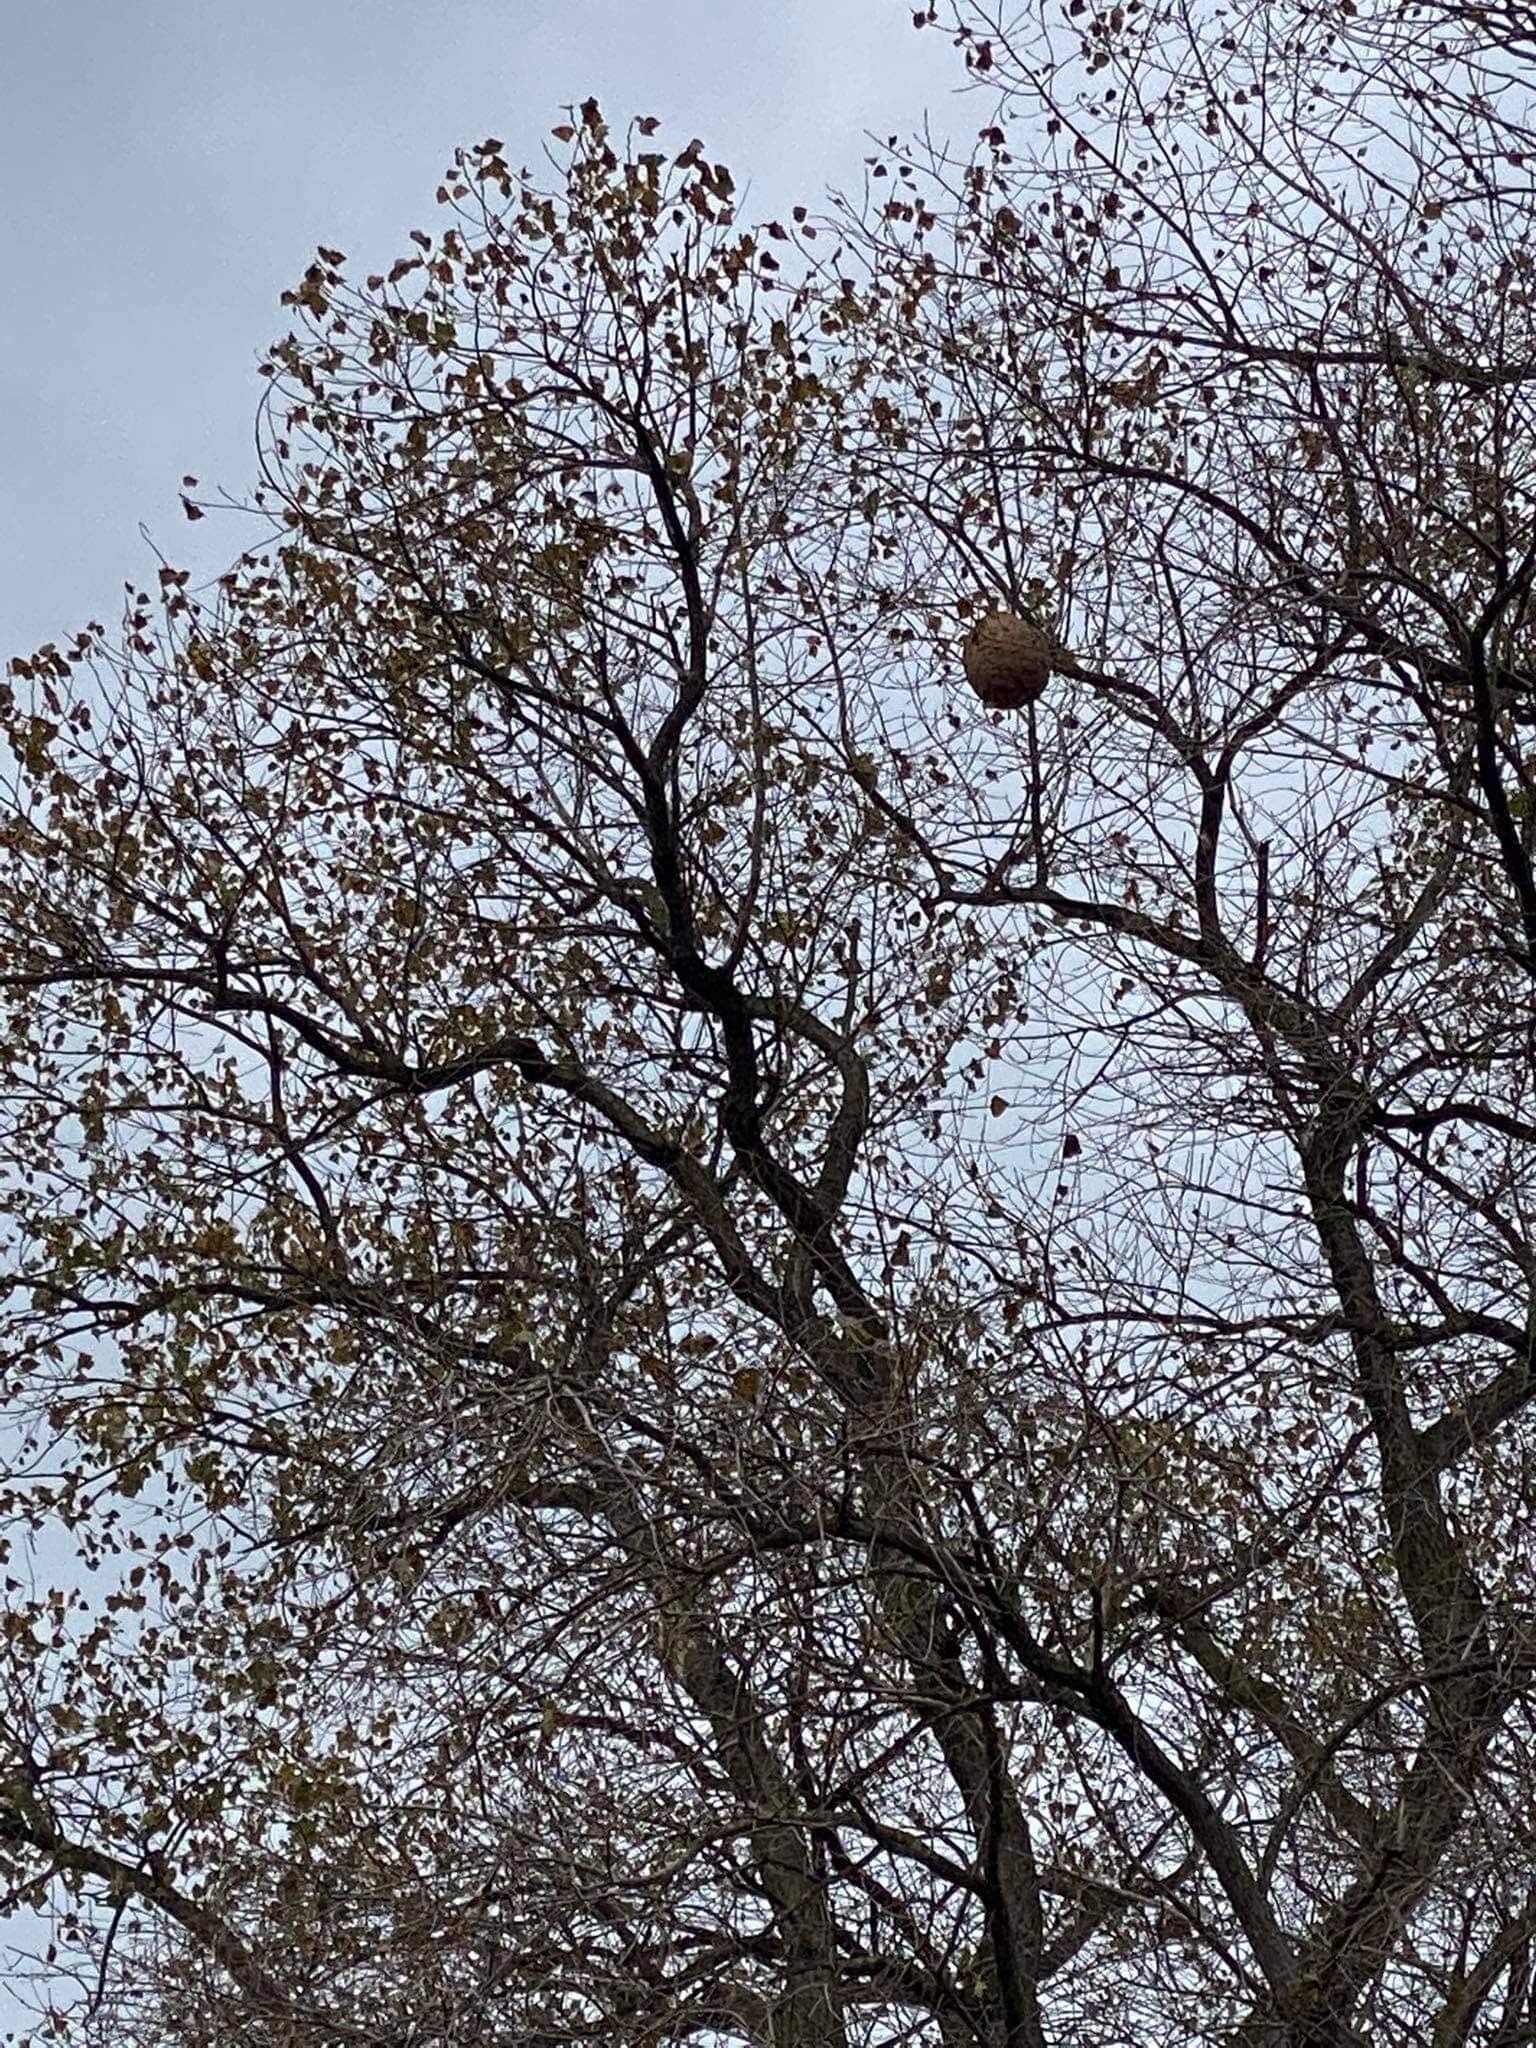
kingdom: Animalia
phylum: Arthropoda
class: Insecta
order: Hymenoptera
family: Vespidae
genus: Vespa
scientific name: Vespa velutina
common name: Asian hornet
